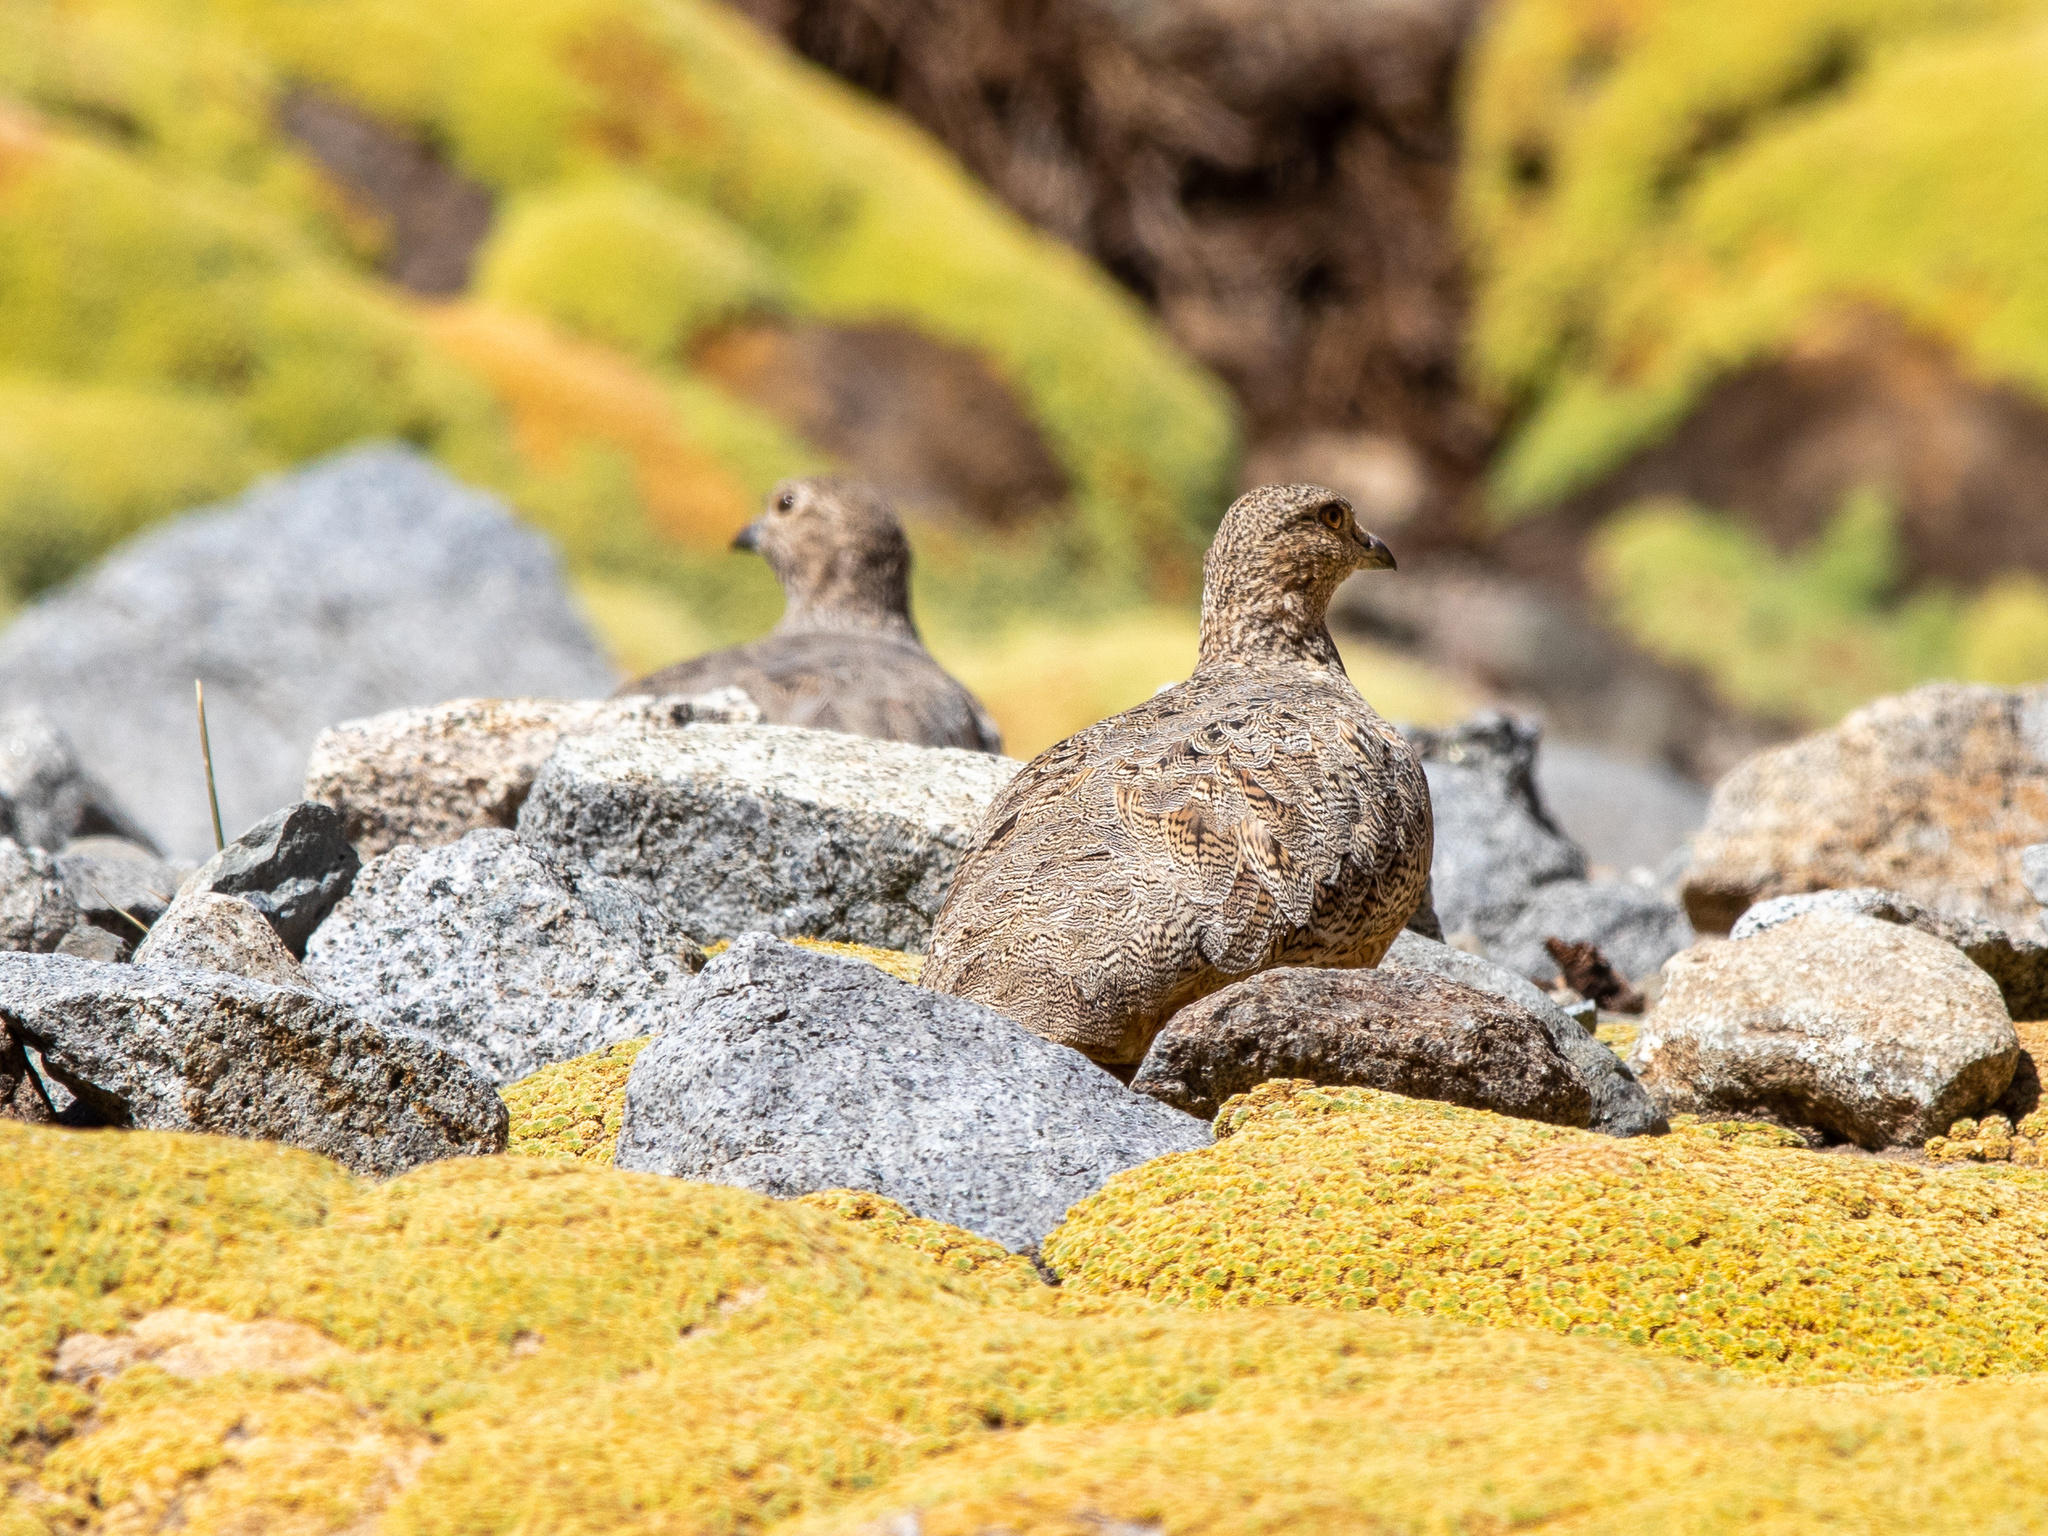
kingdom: Animalia
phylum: Chordata
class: Aves
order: Charadriiformes
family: Thinocoridae
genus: Attagis
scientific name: Attagis gayi
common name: Rufous-bellied seedsnipe
